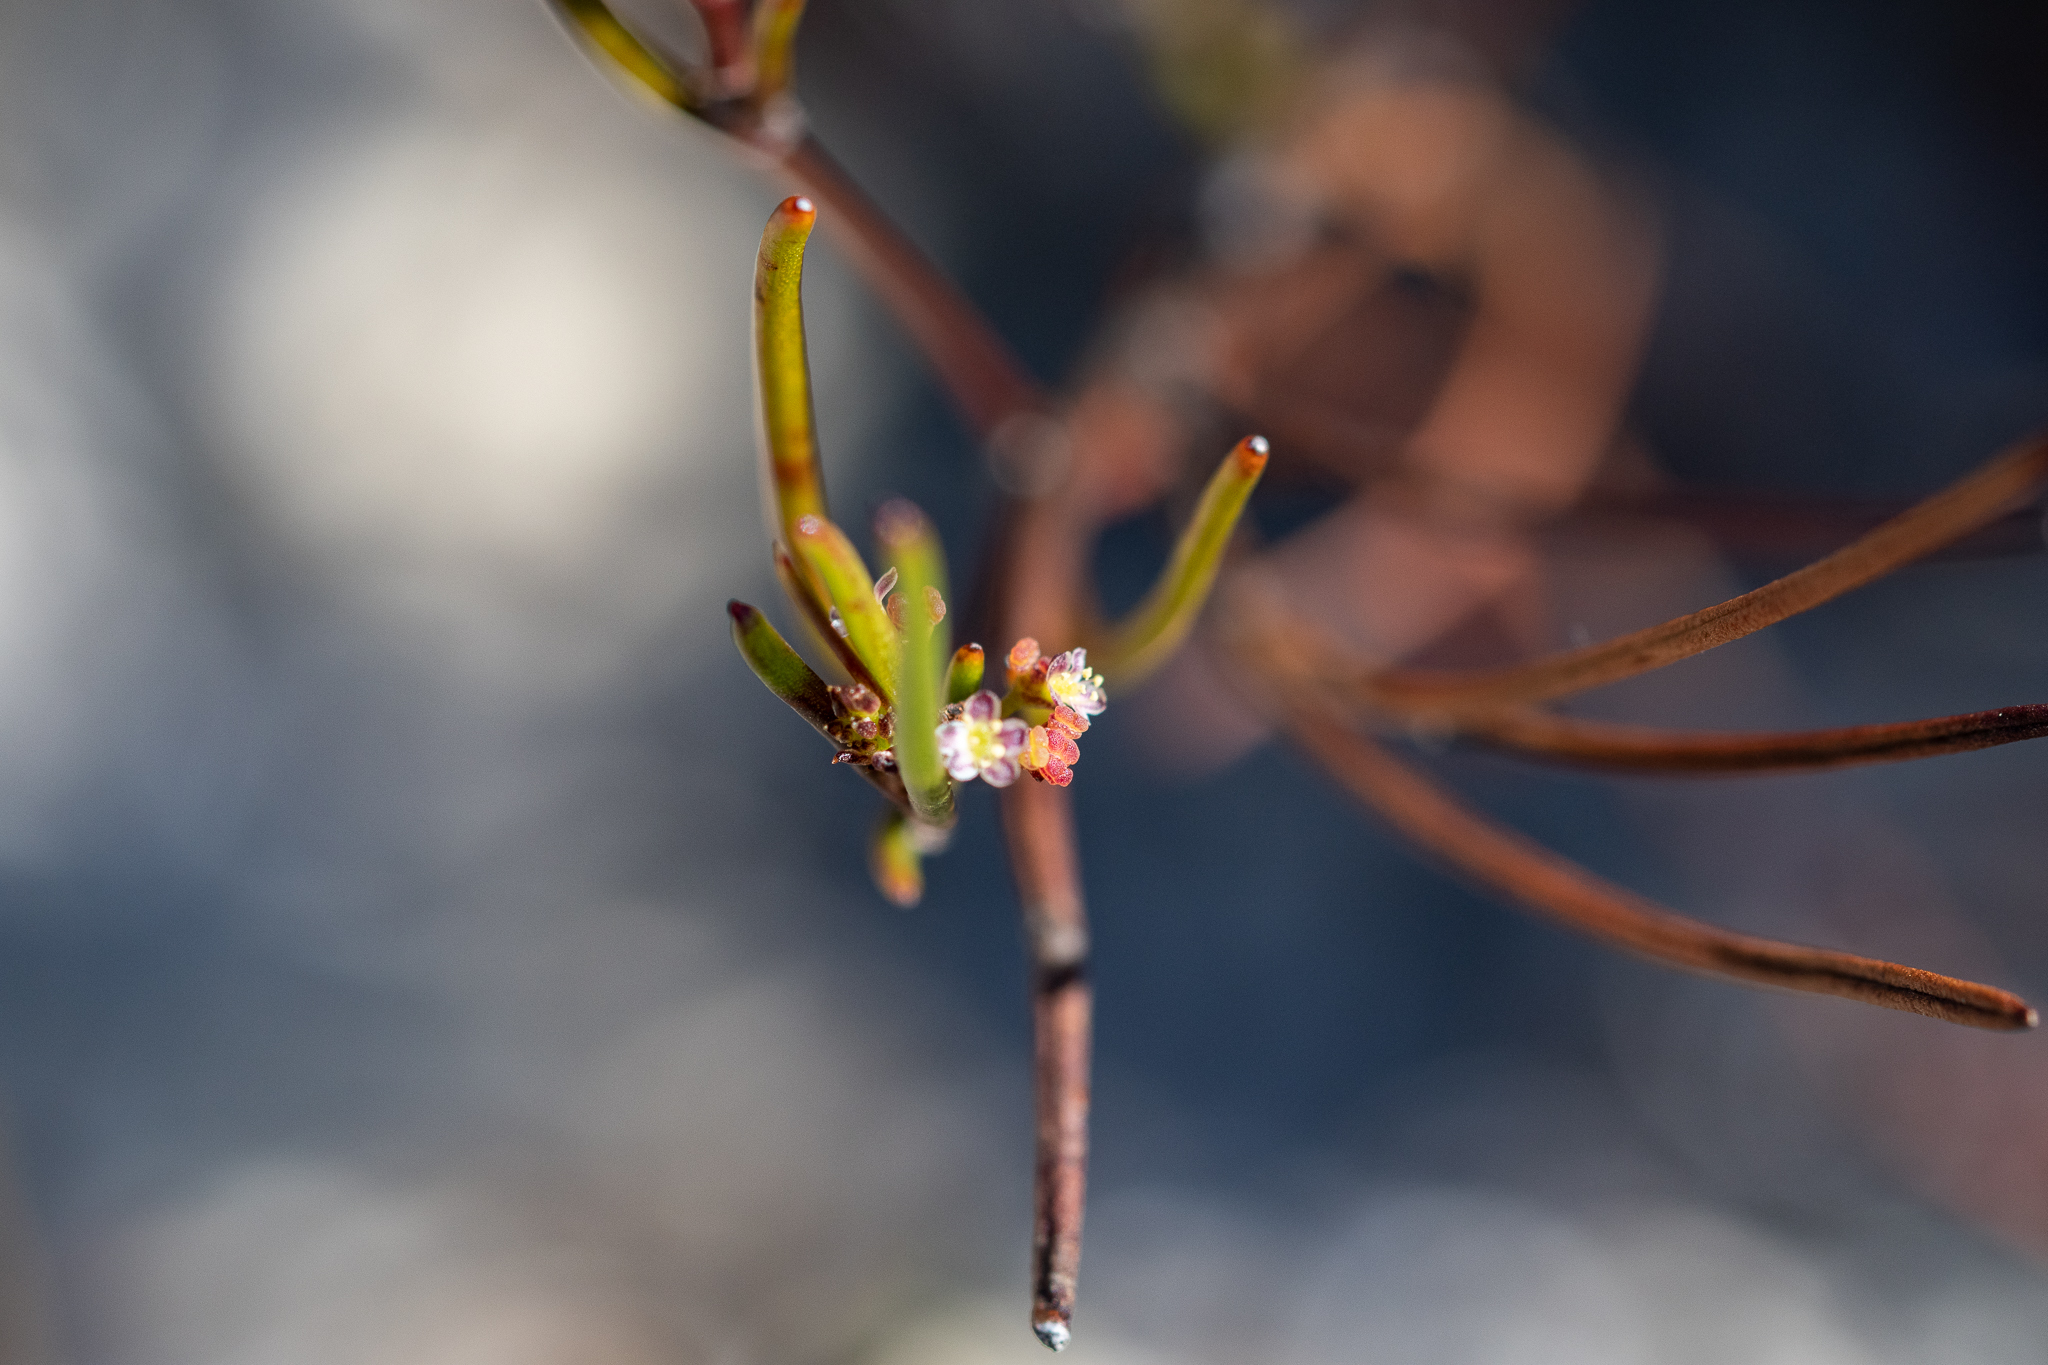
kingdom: Plantae
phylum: Tracheophyta
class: Magnoliopsida
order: Apiales
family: Apiaceae
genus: Centella
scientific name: Centella macrocarpa
